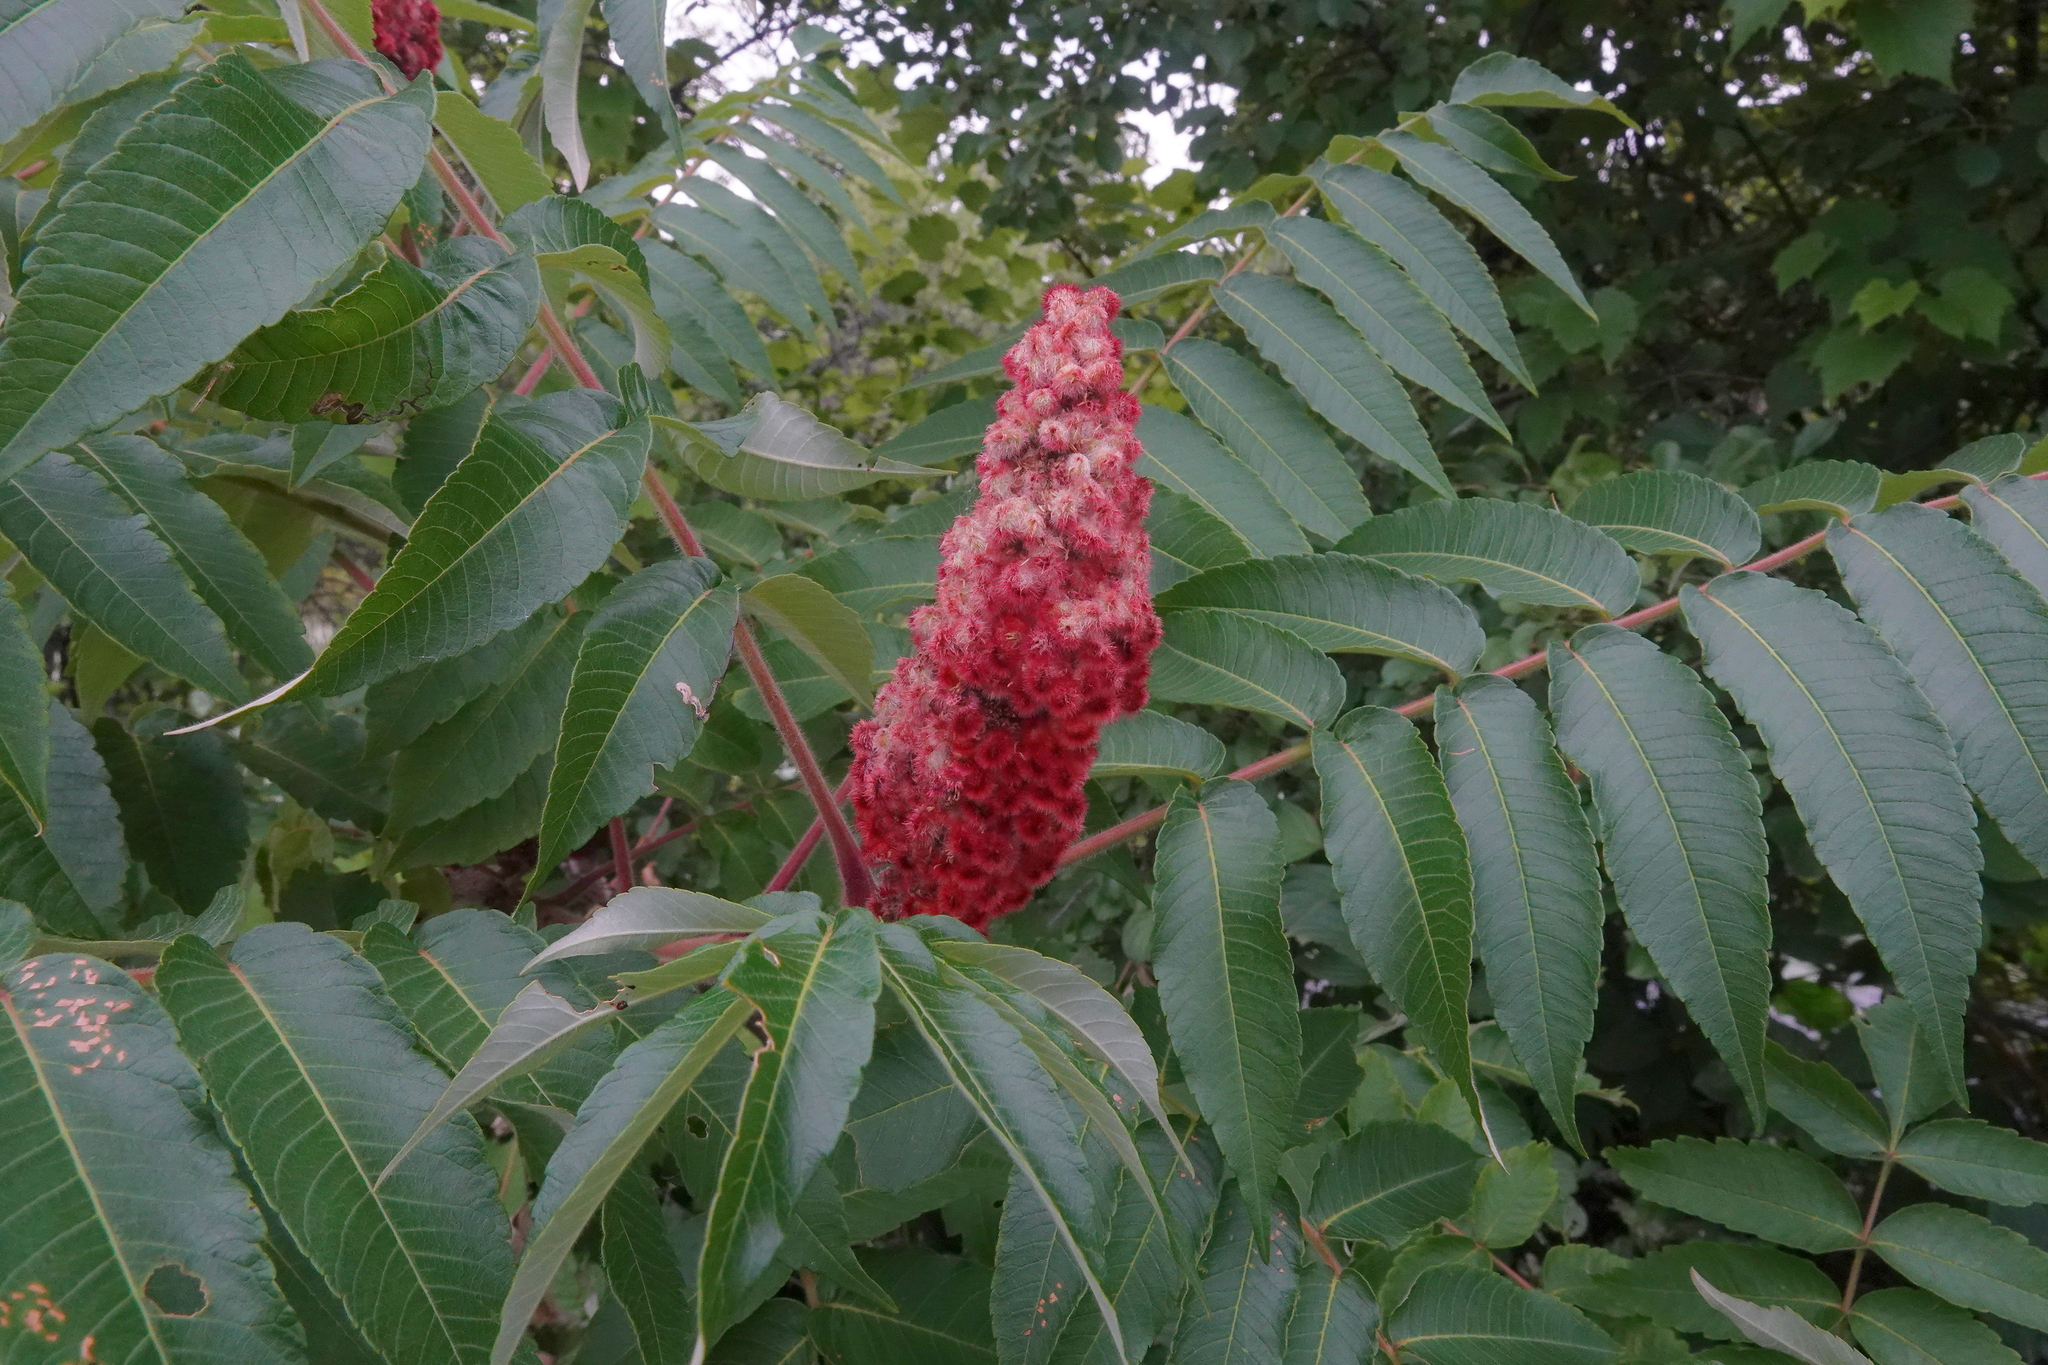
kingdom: Plantae
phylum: Tracheophyta
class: Magnoliopsida
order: Sapindales
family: Anacardiaceae
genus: Rhus
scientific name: Rhus typhina
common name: Staghorn sumac
